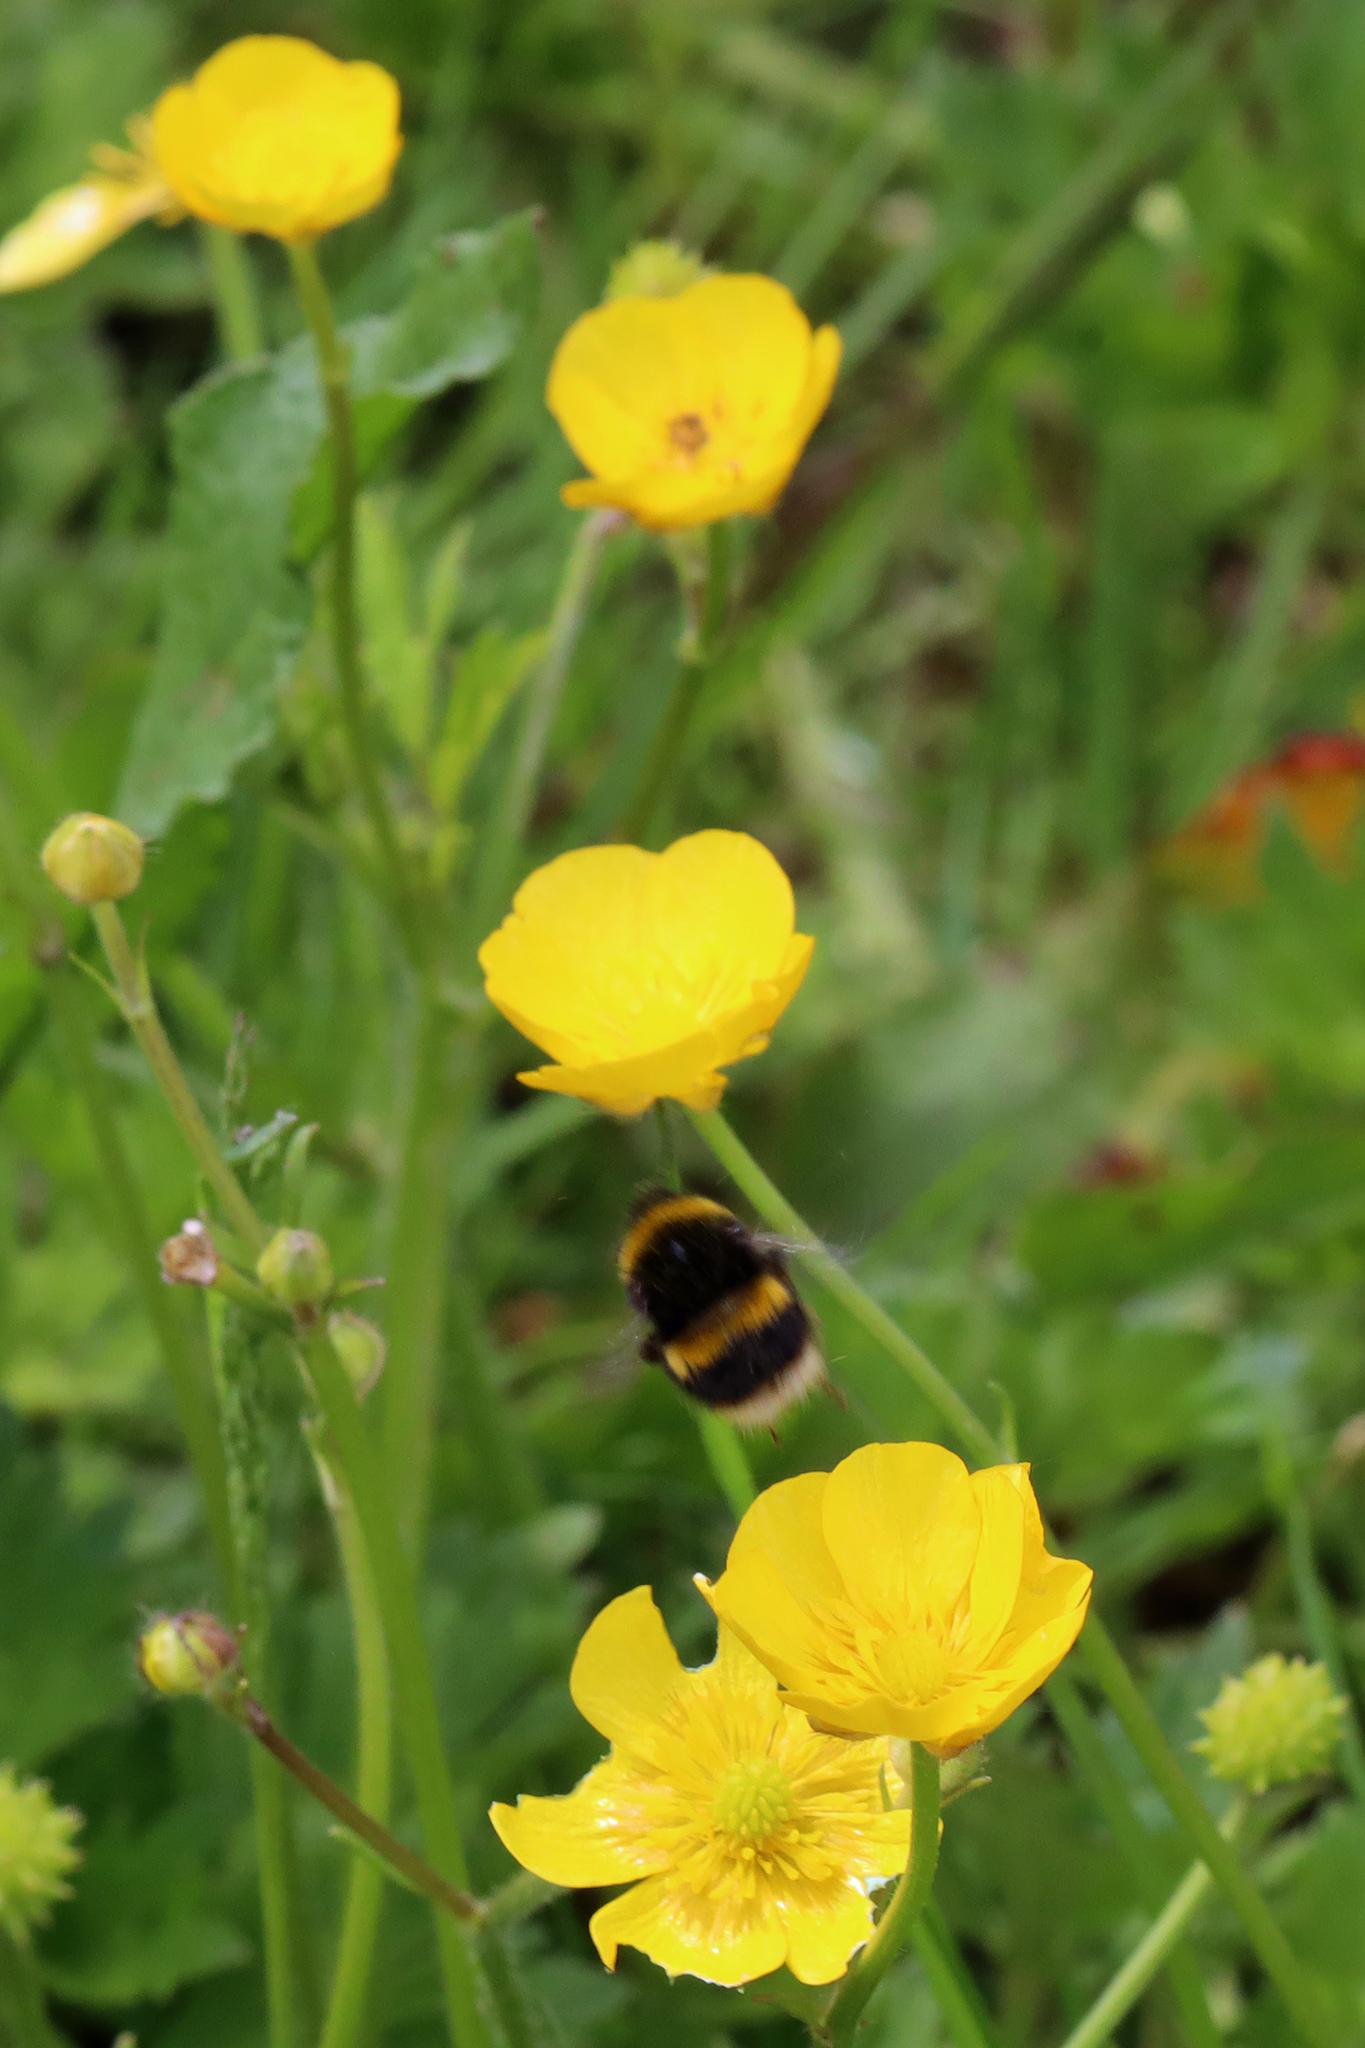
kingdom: Animalia
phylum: Arthropoda
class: Insecta
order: Hymenoptera
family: Apidae
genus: Bombus
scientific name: Bombus terrestris
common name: Buff-tailed bumblebee
